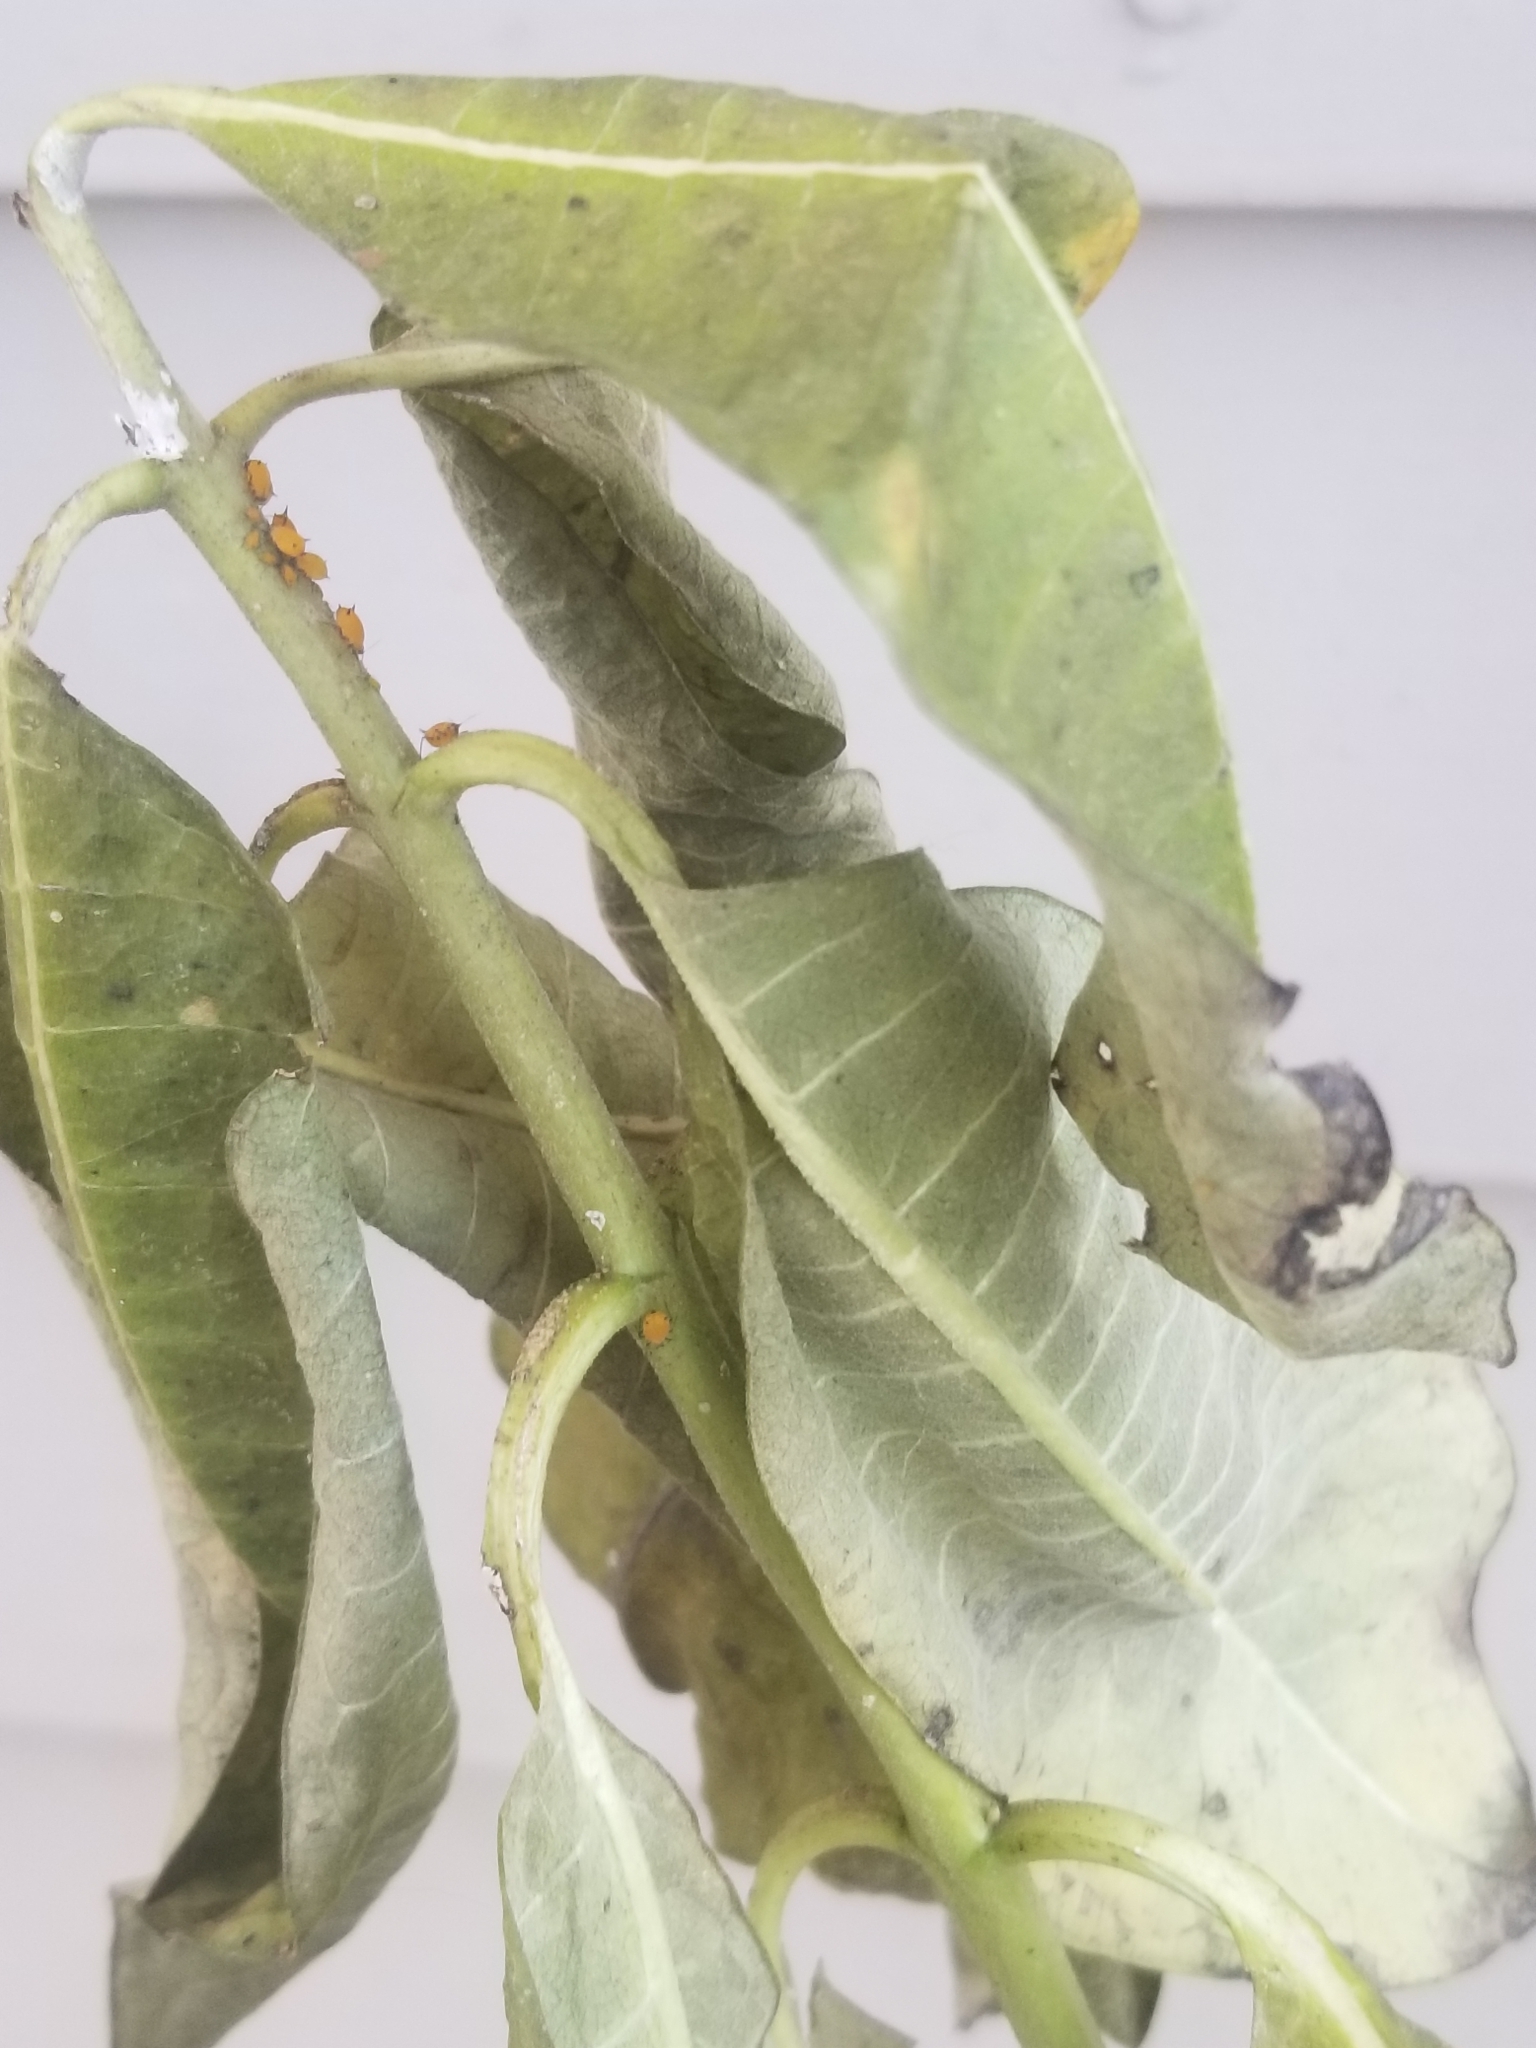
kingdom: Animalia
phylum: Arthropoda
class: Insecta
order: Hemiptera
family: Aphididae
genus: Aphis
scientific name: Aphis nerii
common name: Oleander aphid
